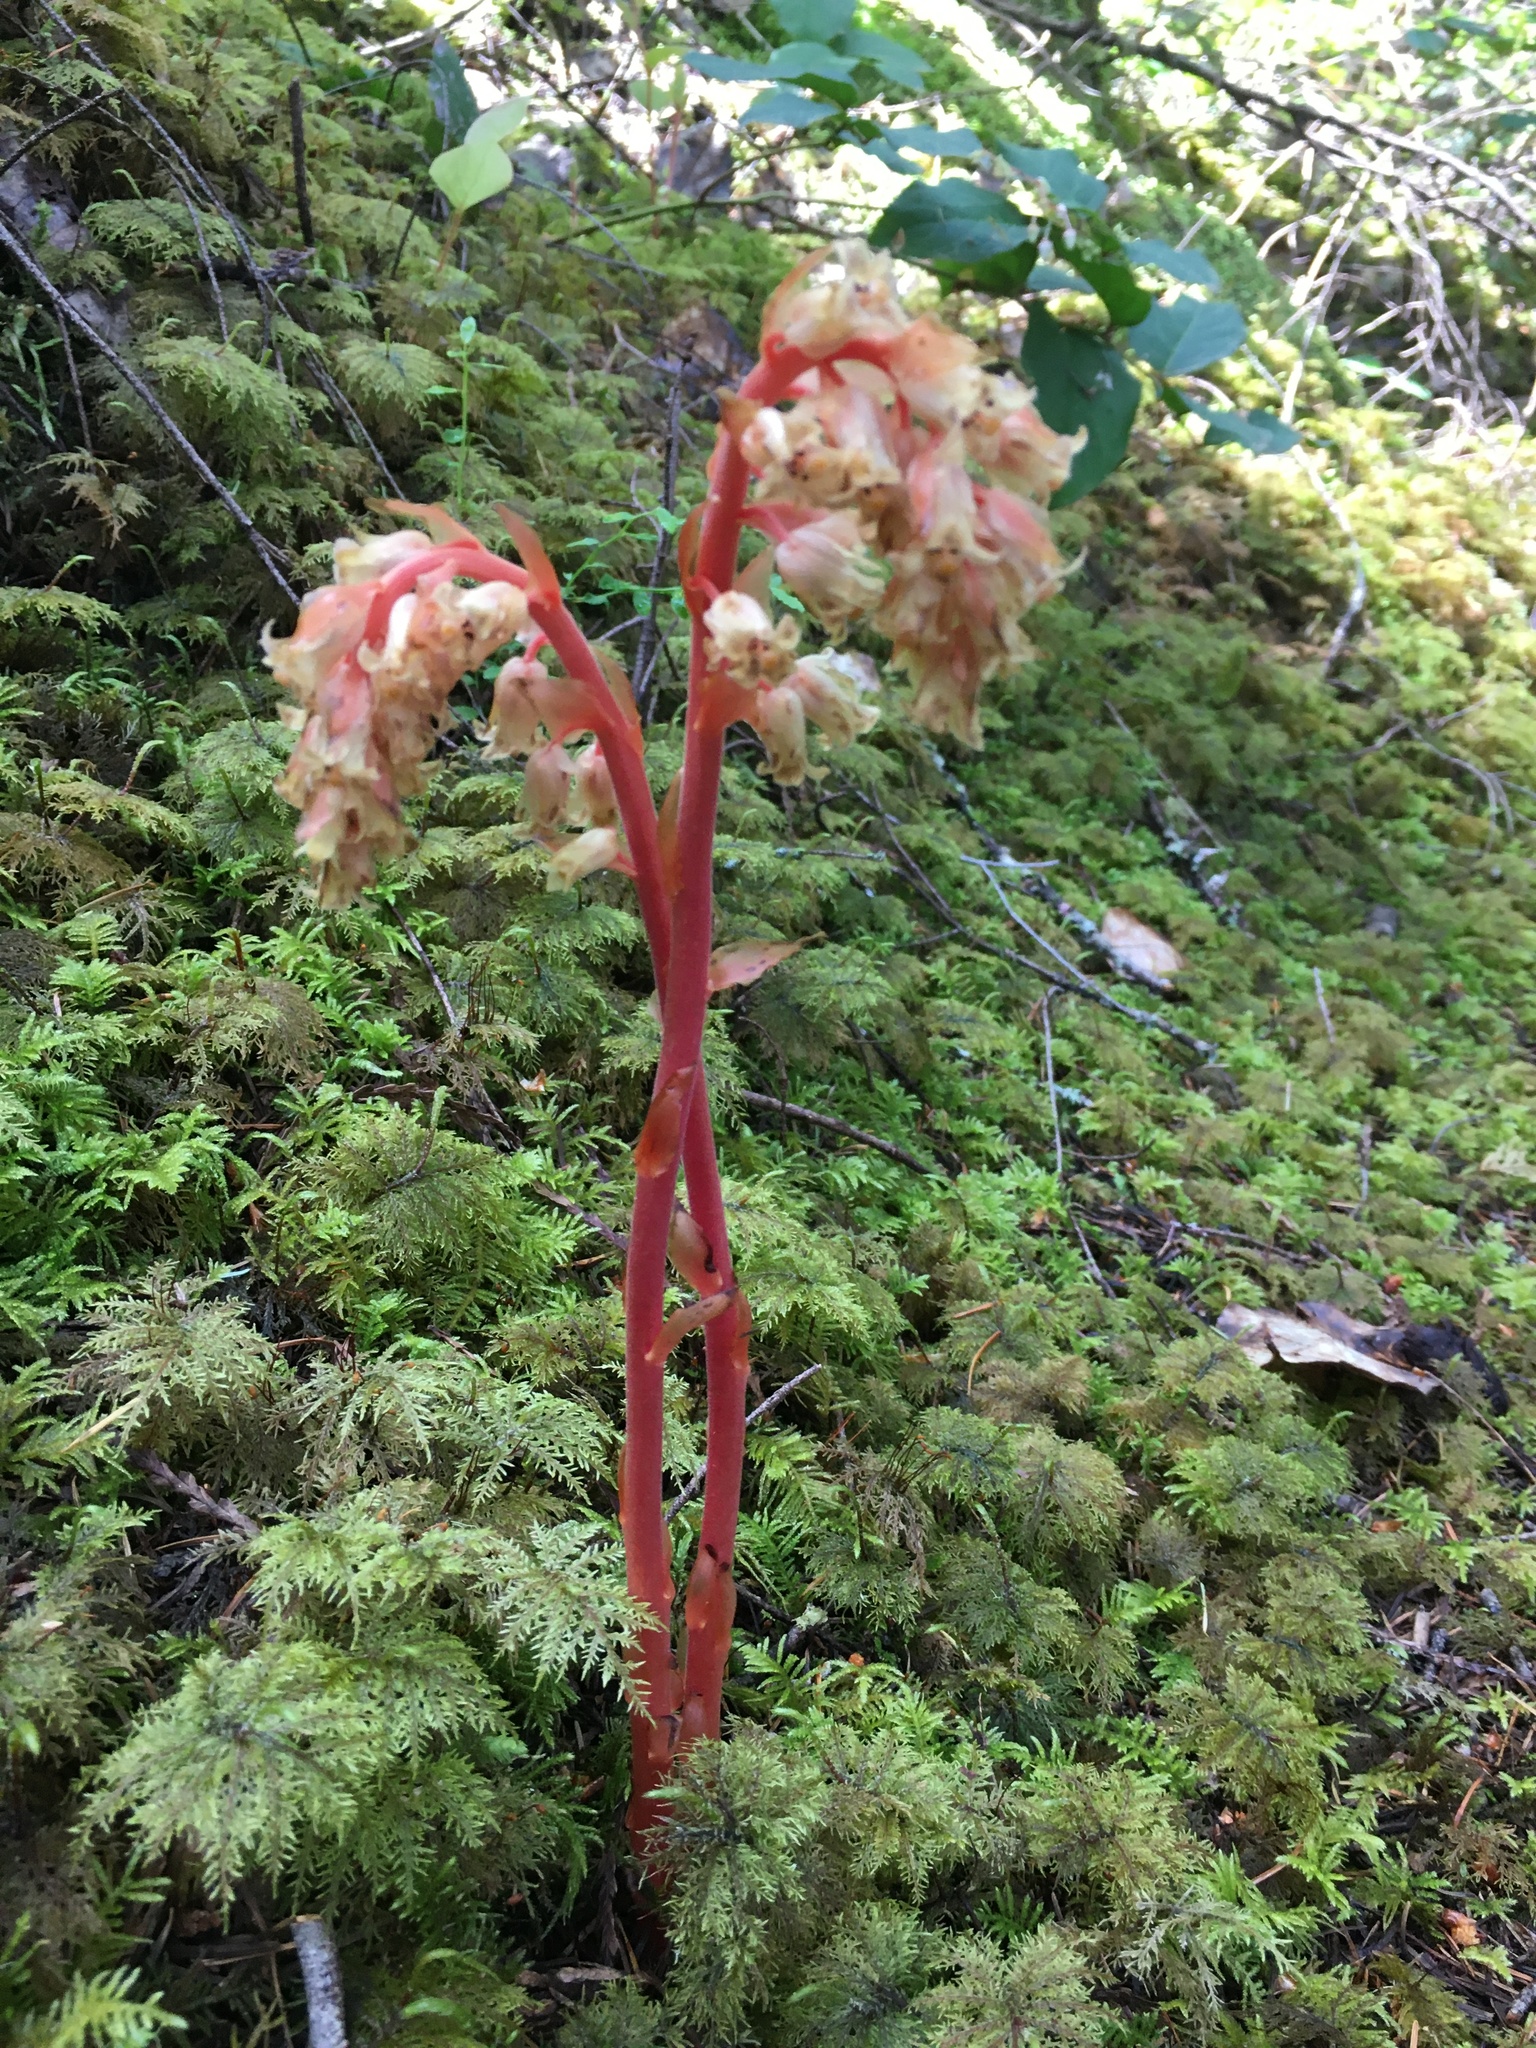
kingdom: Plantae
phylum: Tracheophyta
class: Magnoliopsida
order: Ericales
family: Ericaceae
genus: Hypopitys
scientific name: Hypopitys monotropa
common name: Yellow bird's-nest
